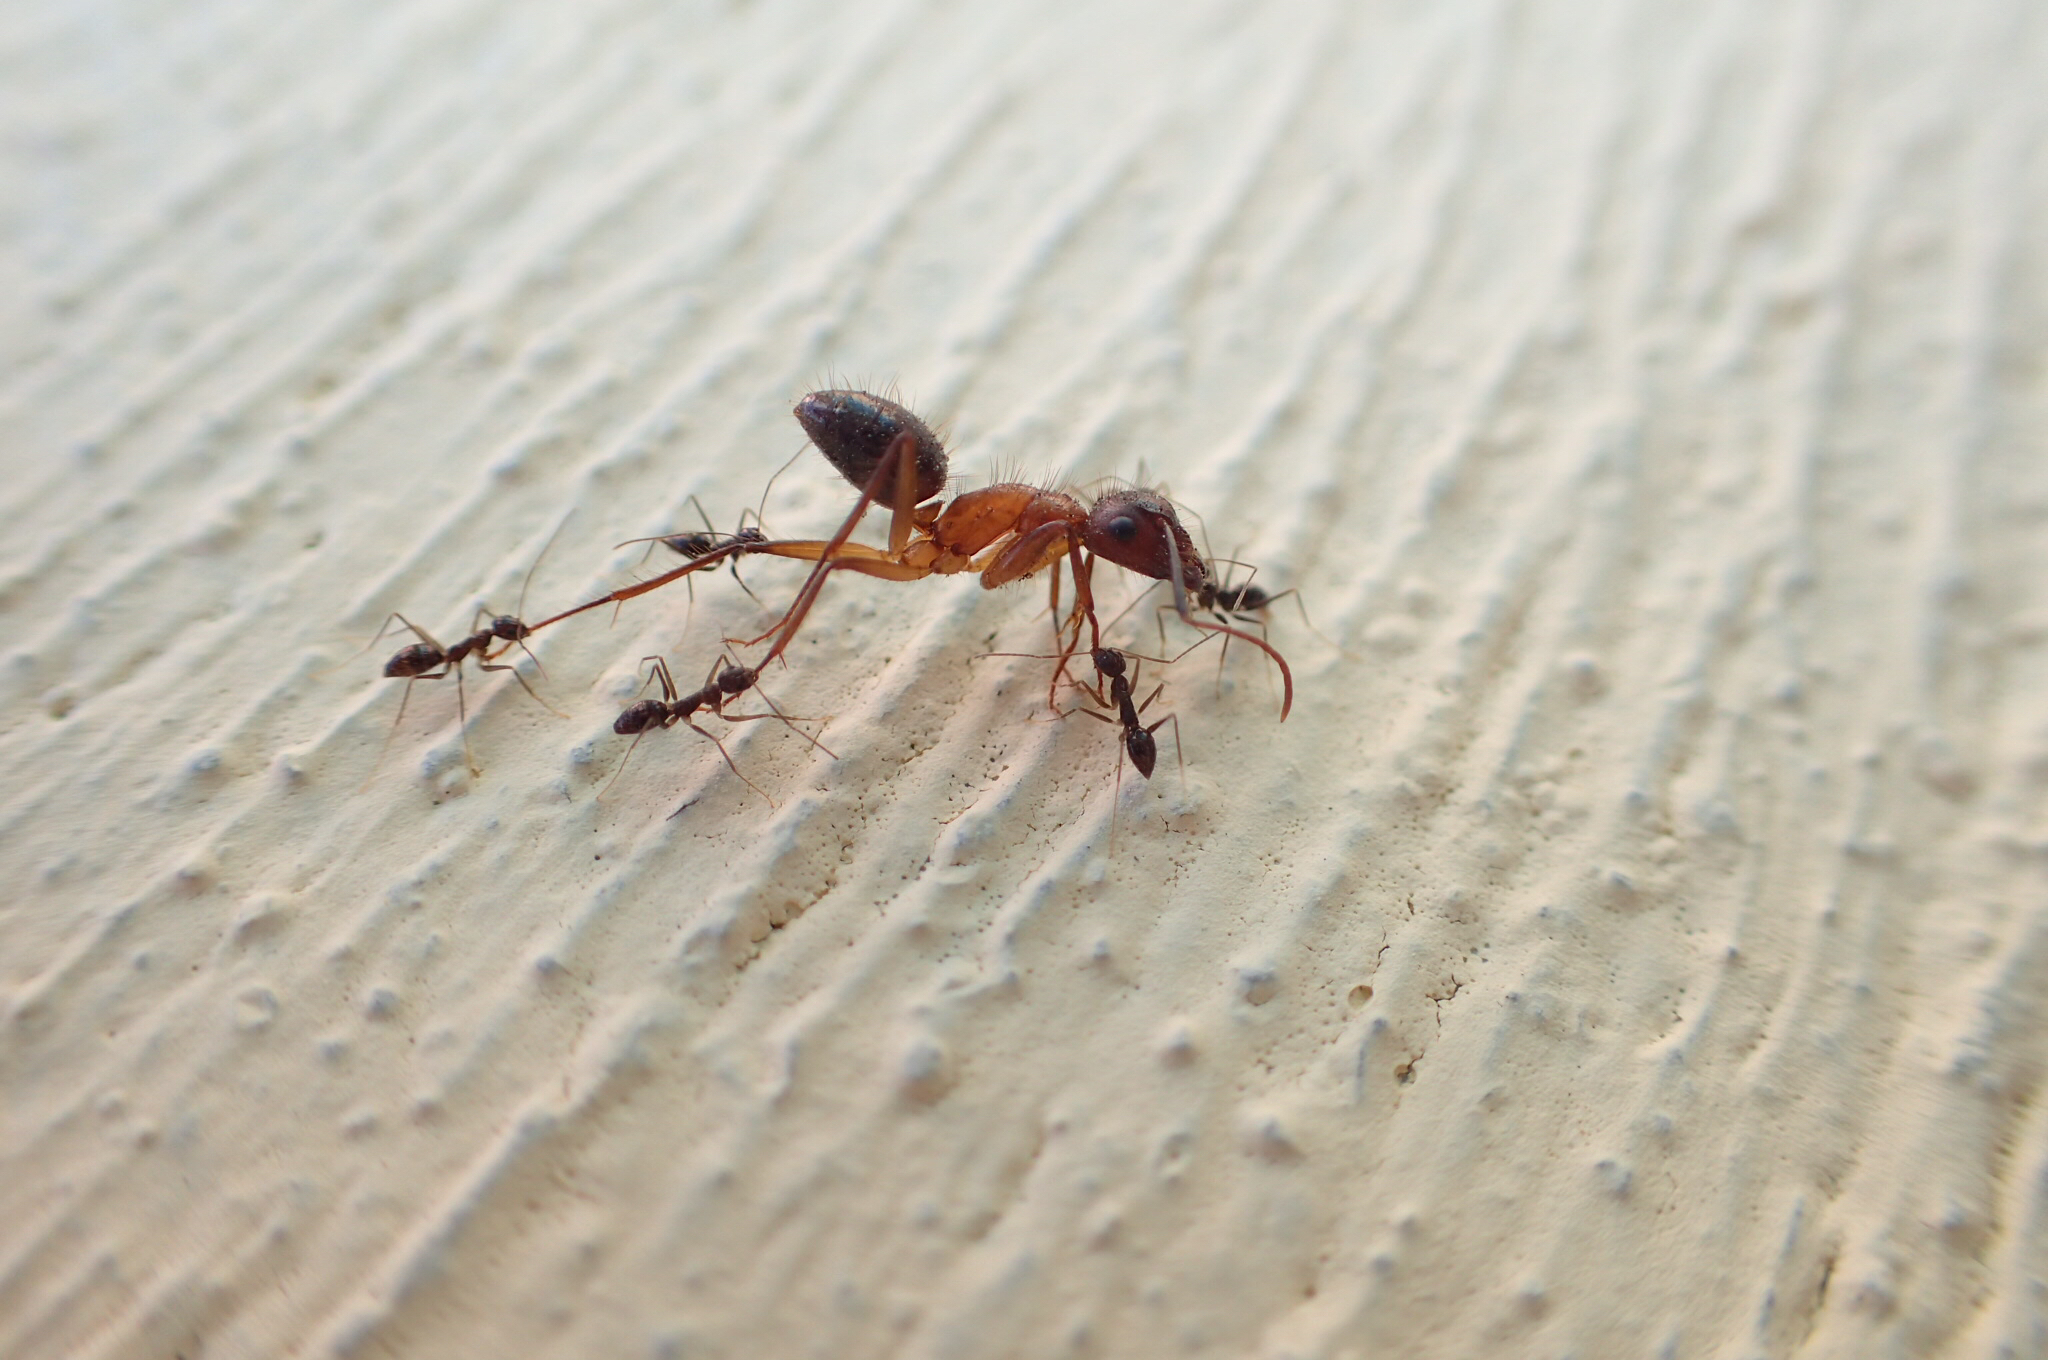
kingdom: Animalia
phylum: Arthropoda
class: Insecta
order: Hymenoptera
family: Formicidae
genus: Paratrechina
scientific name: Paratrechina longicornis
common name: Longhorned crazy ant
